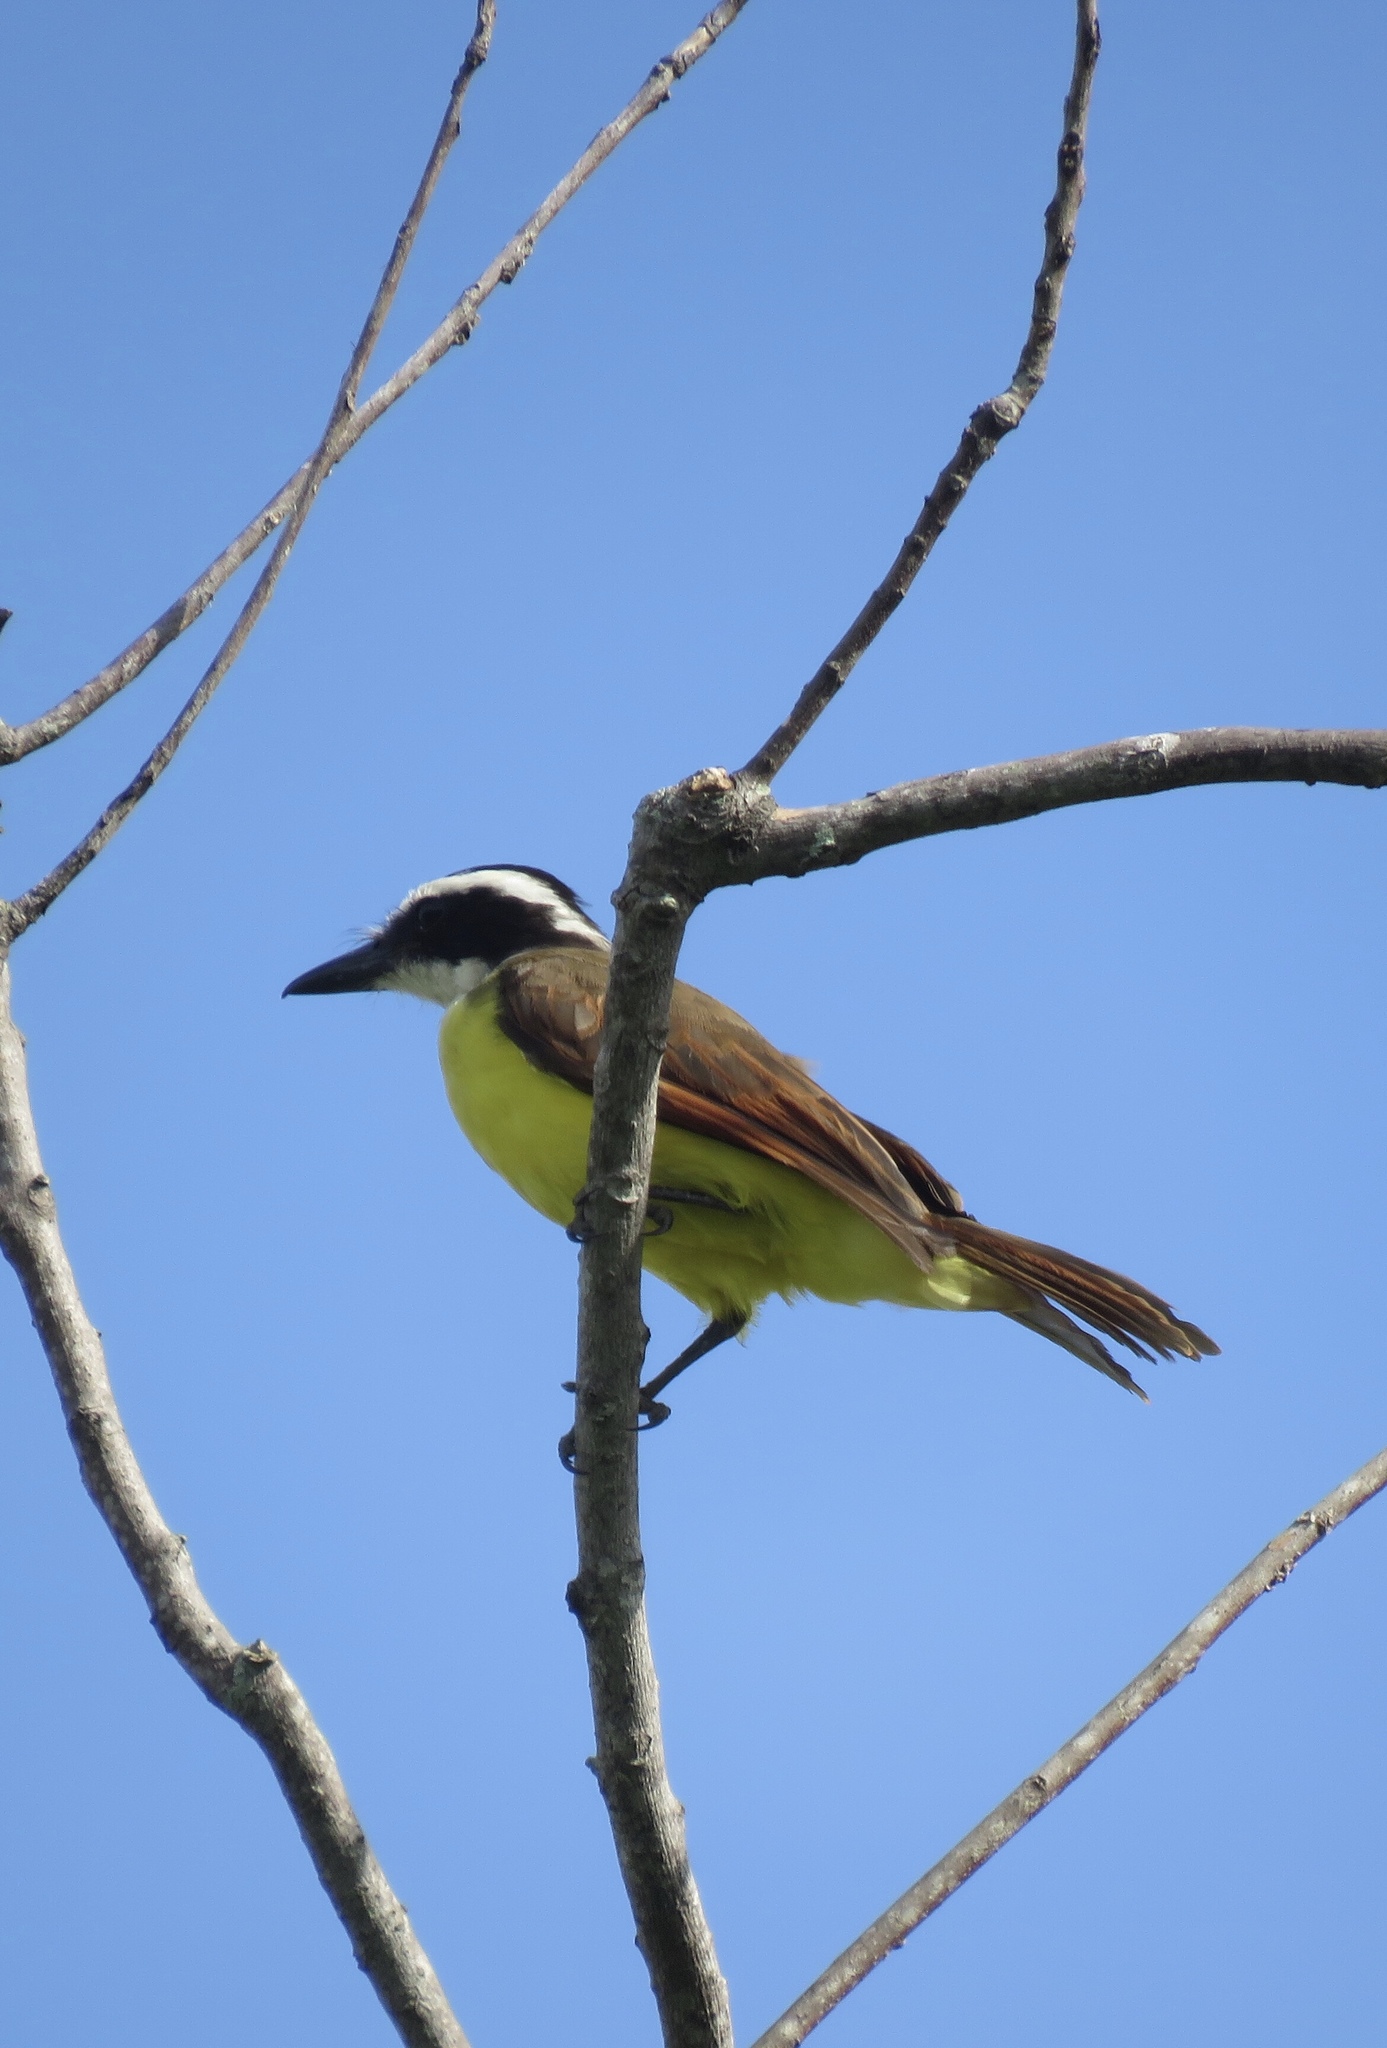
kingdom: Animalia
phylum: Chordata
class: Aves
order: Passeriformes
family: Tyrannidae
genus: Pitangus
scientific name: Pitangus sulphuratus
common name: Great kiskadee
